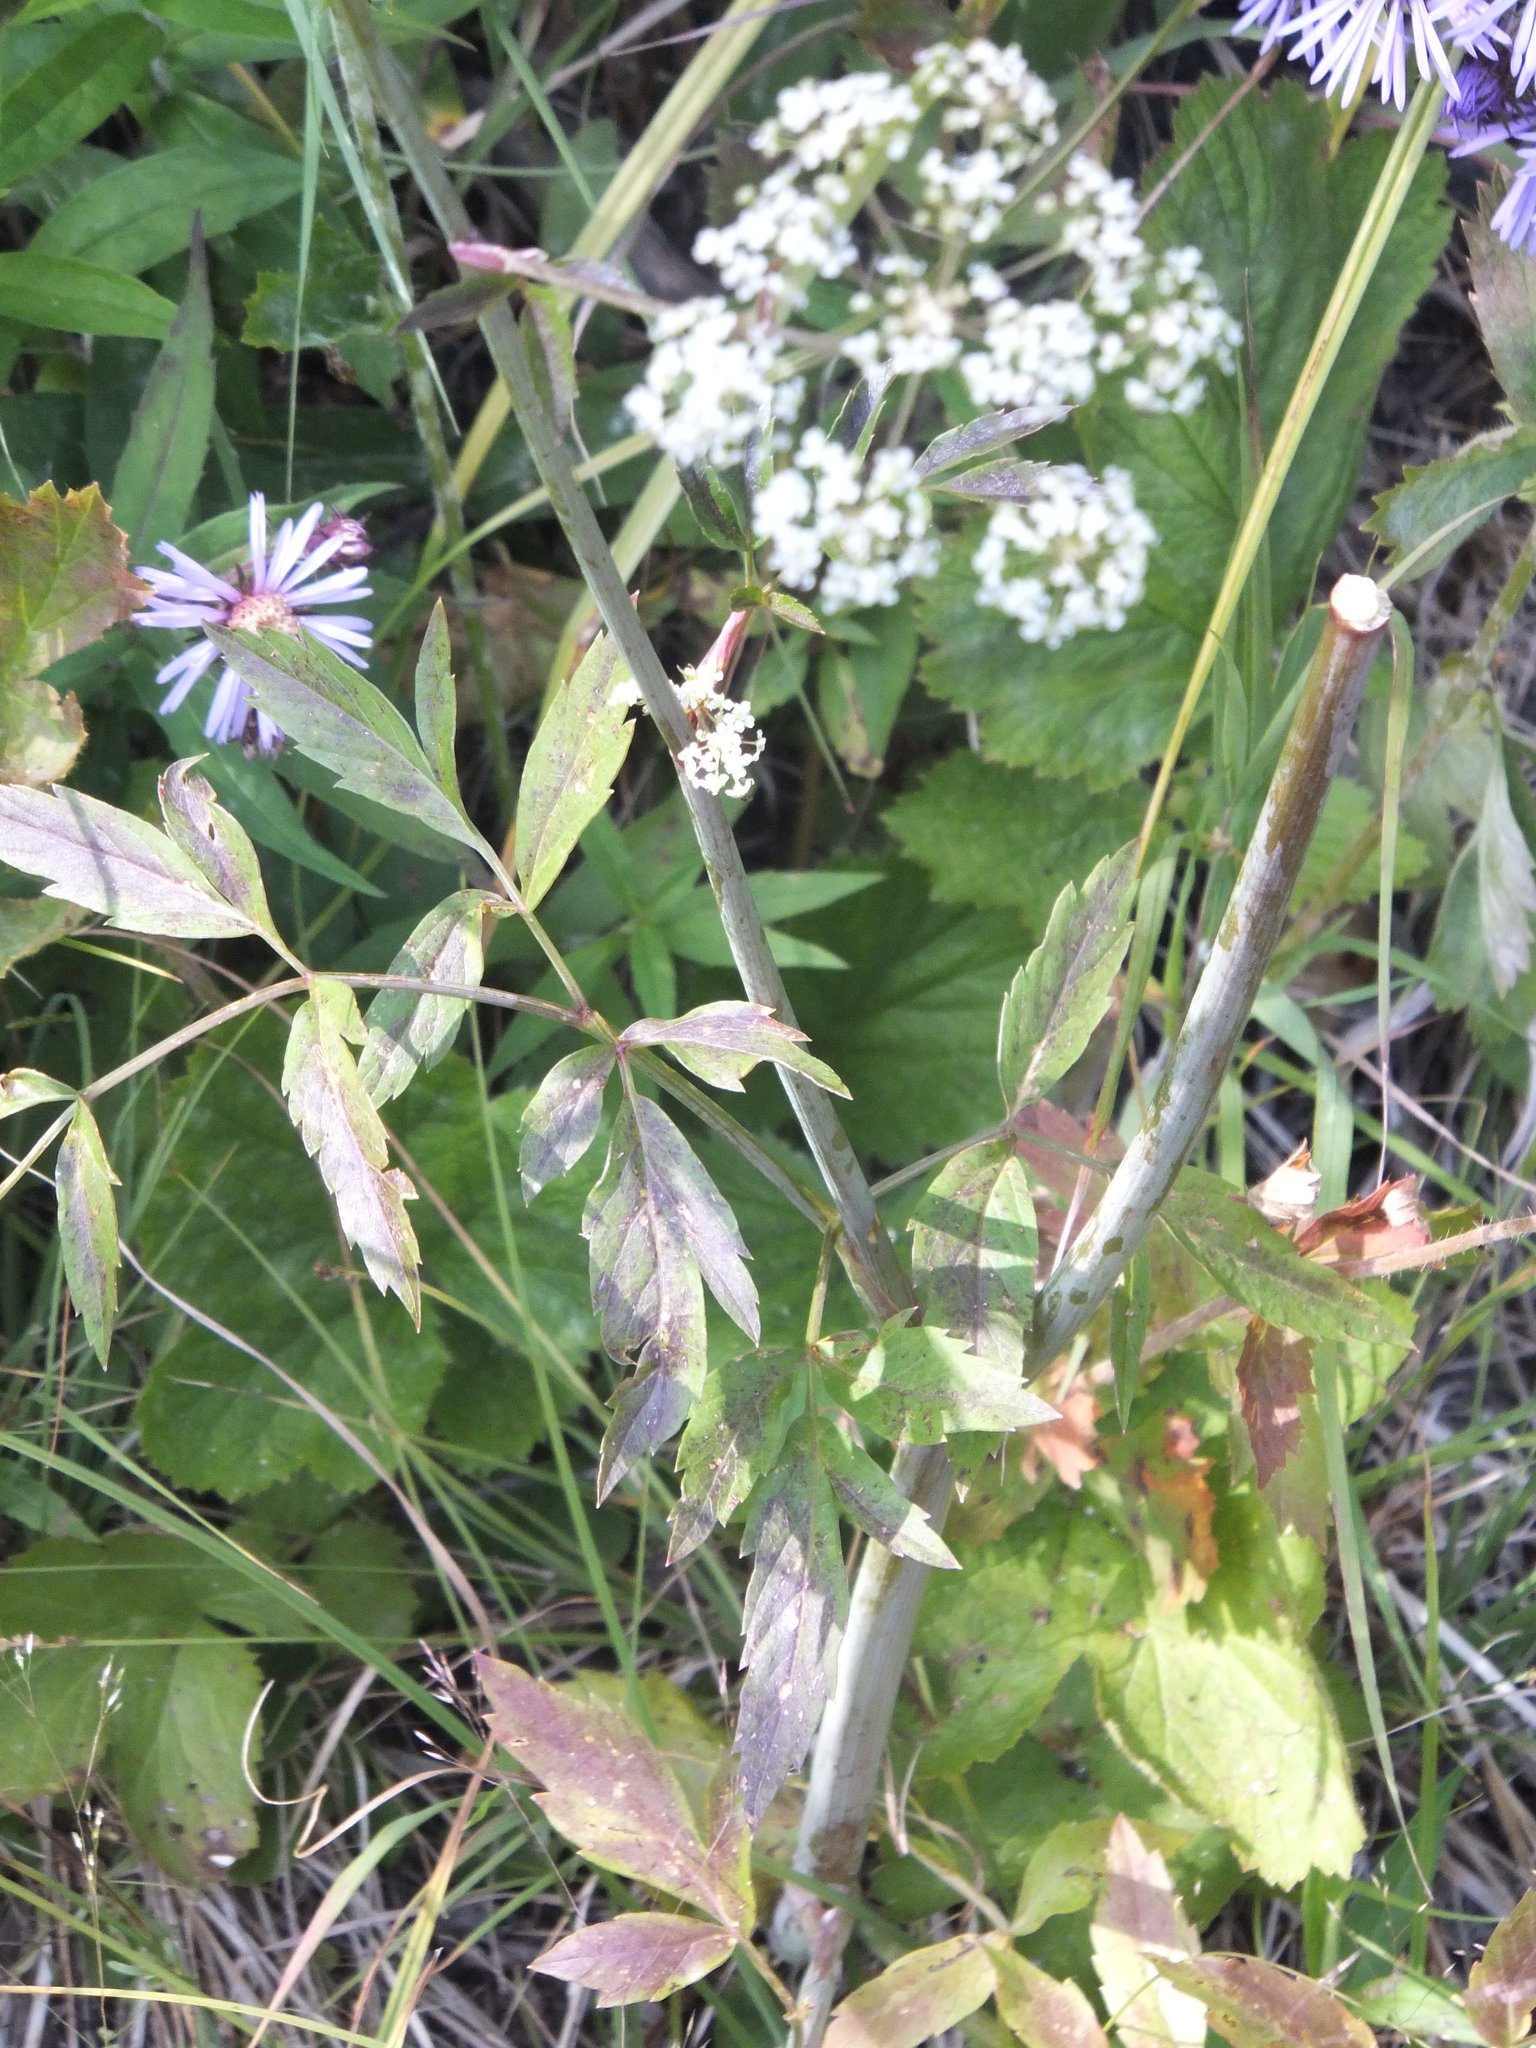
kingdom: Plantae
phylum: Tracheophyta
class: Magnoliopsida
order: Apiales
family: Apiaceae
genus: Cicuta
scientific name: Cicuta douglasii
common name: Western water-hemlock
